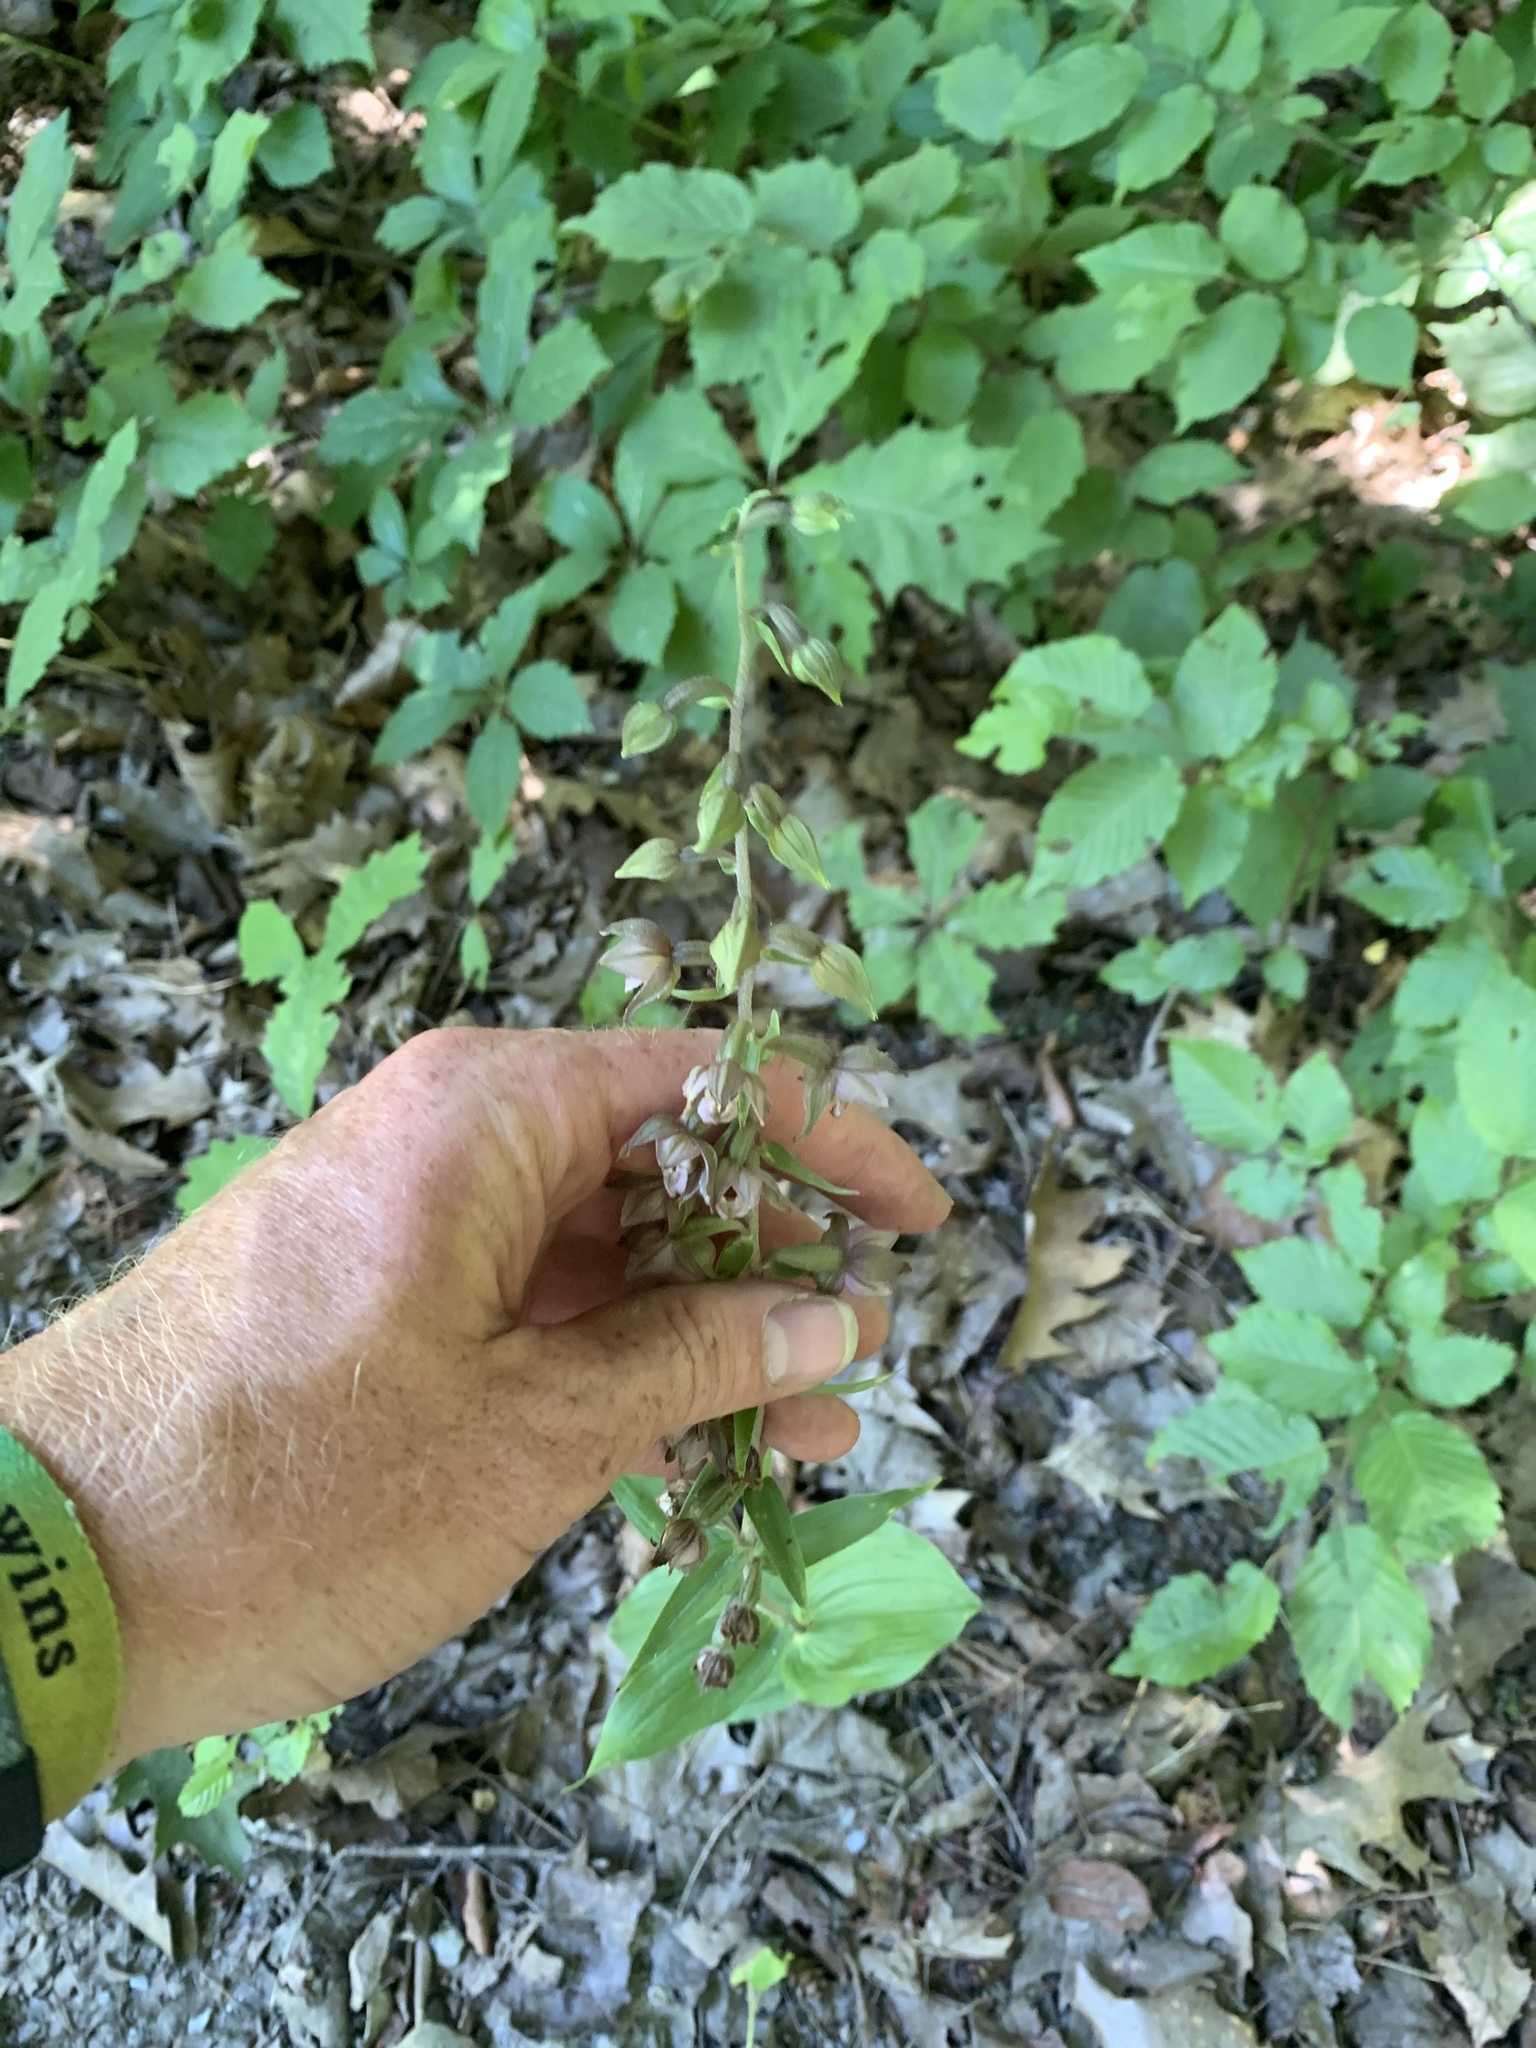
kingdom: Plantae
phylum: Tracheophyta
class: Liliopsida
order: Asparagales
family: Orchidaceae
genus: Epipactis
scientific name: Epipactis helleborine
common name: Broad-leaved helleborine
